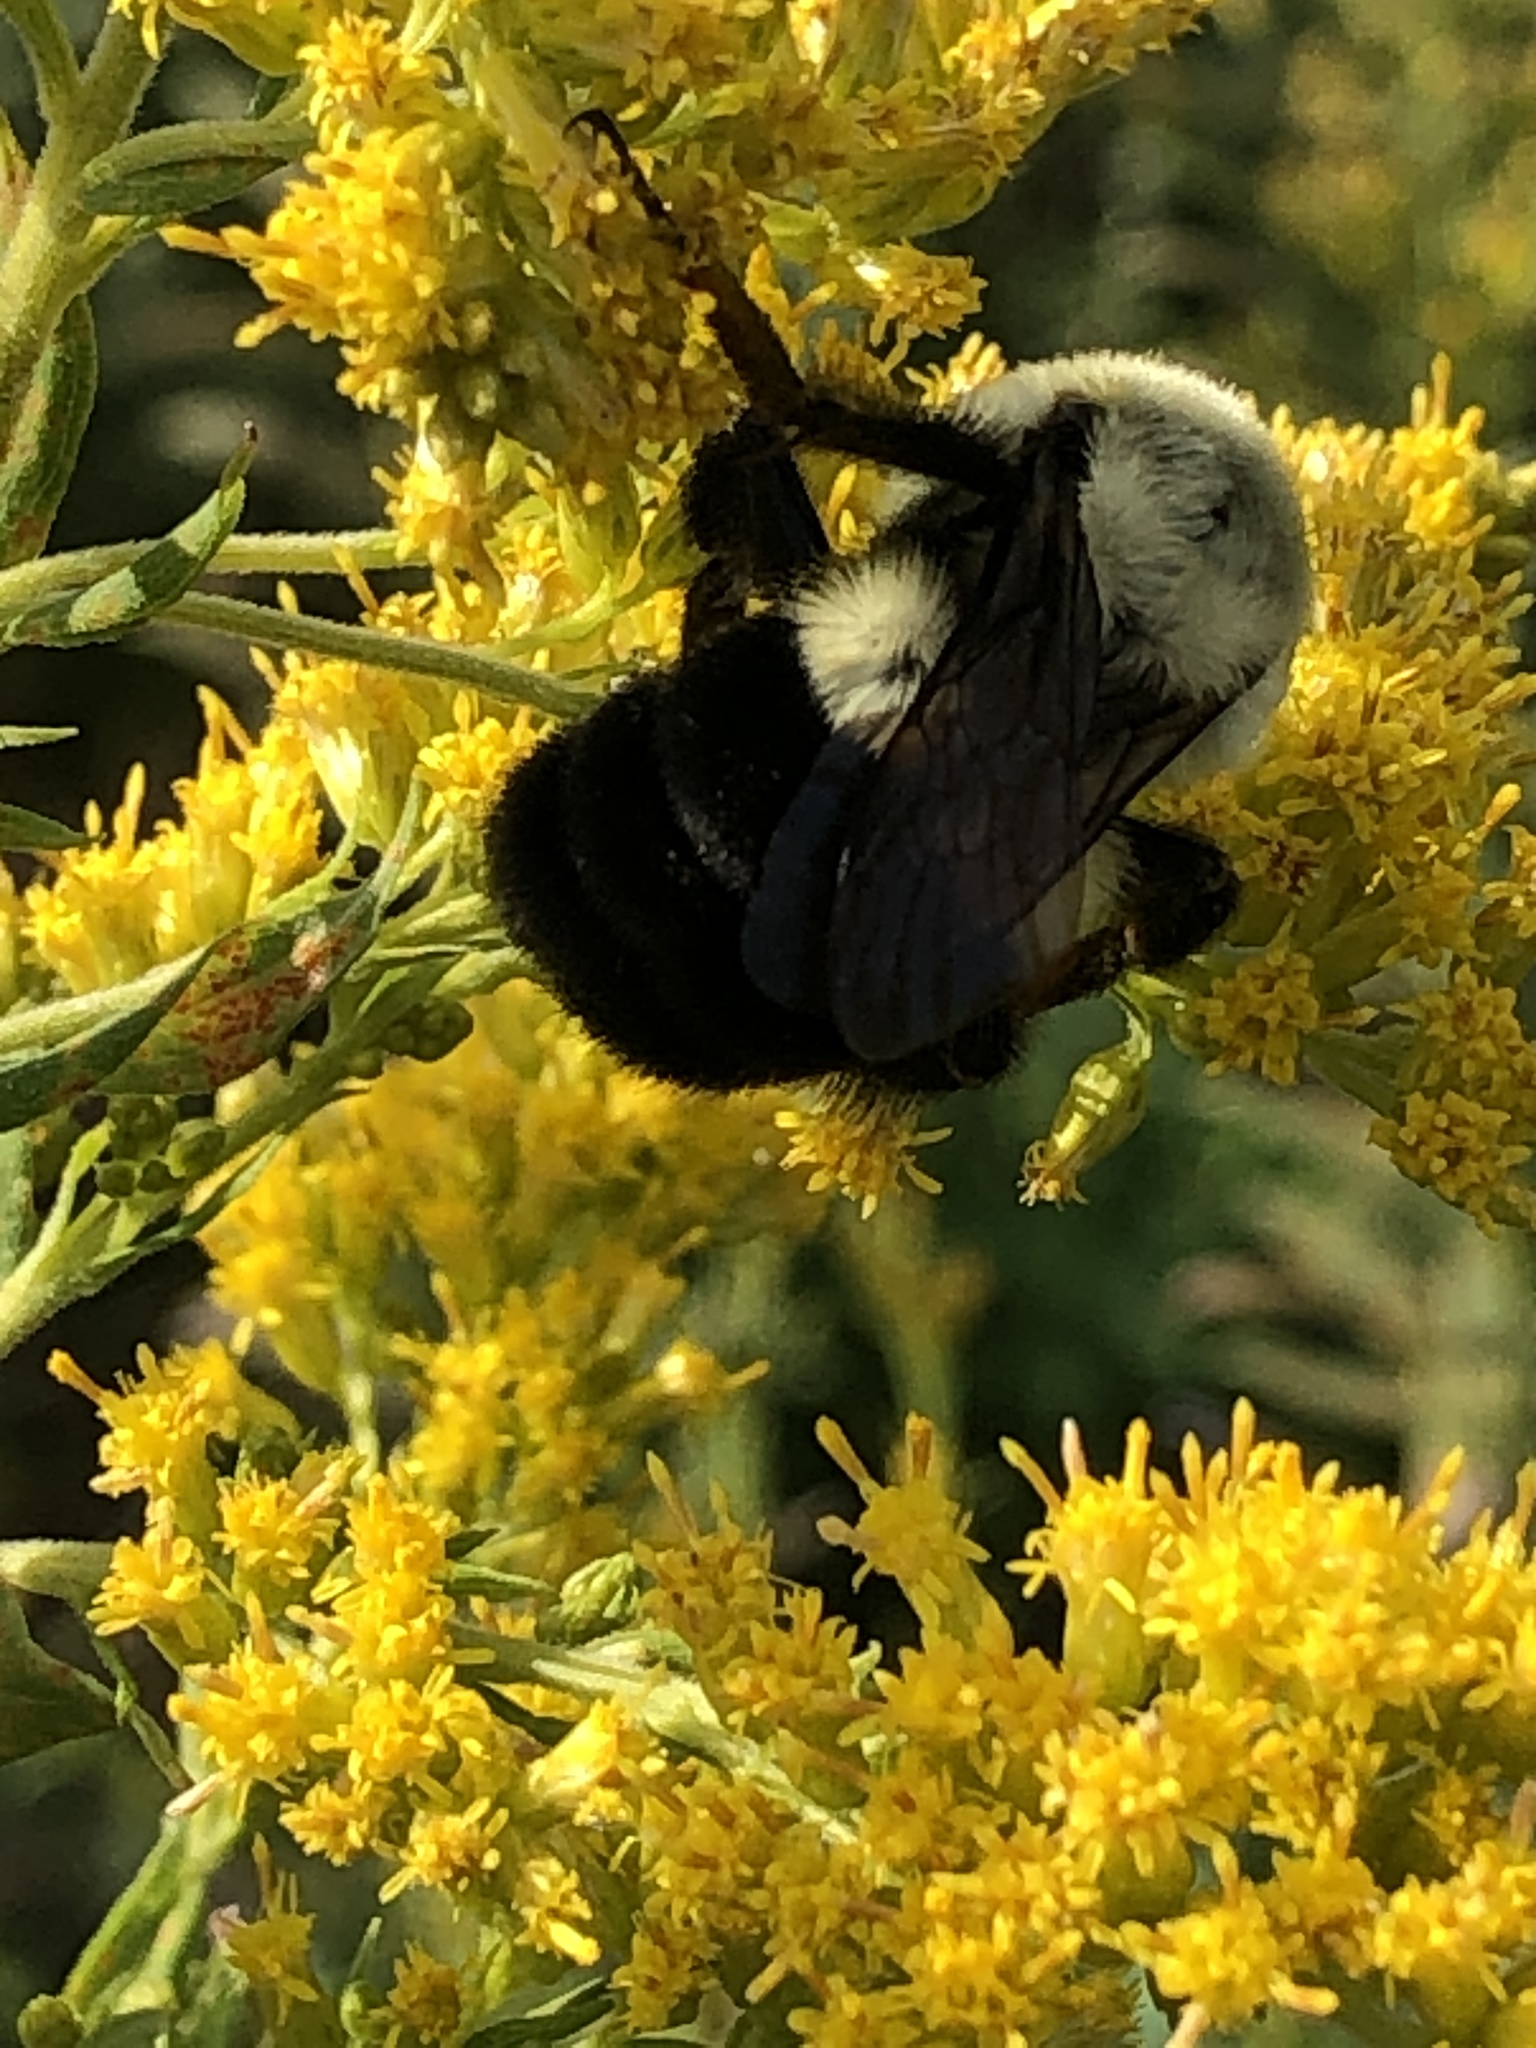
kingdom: Animalia
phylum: Arthropoda
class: Insecta
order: Hymenoptera
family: Apidae
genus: Bombus
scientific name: Bombus impatiens
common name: Common eastern bumble bee
